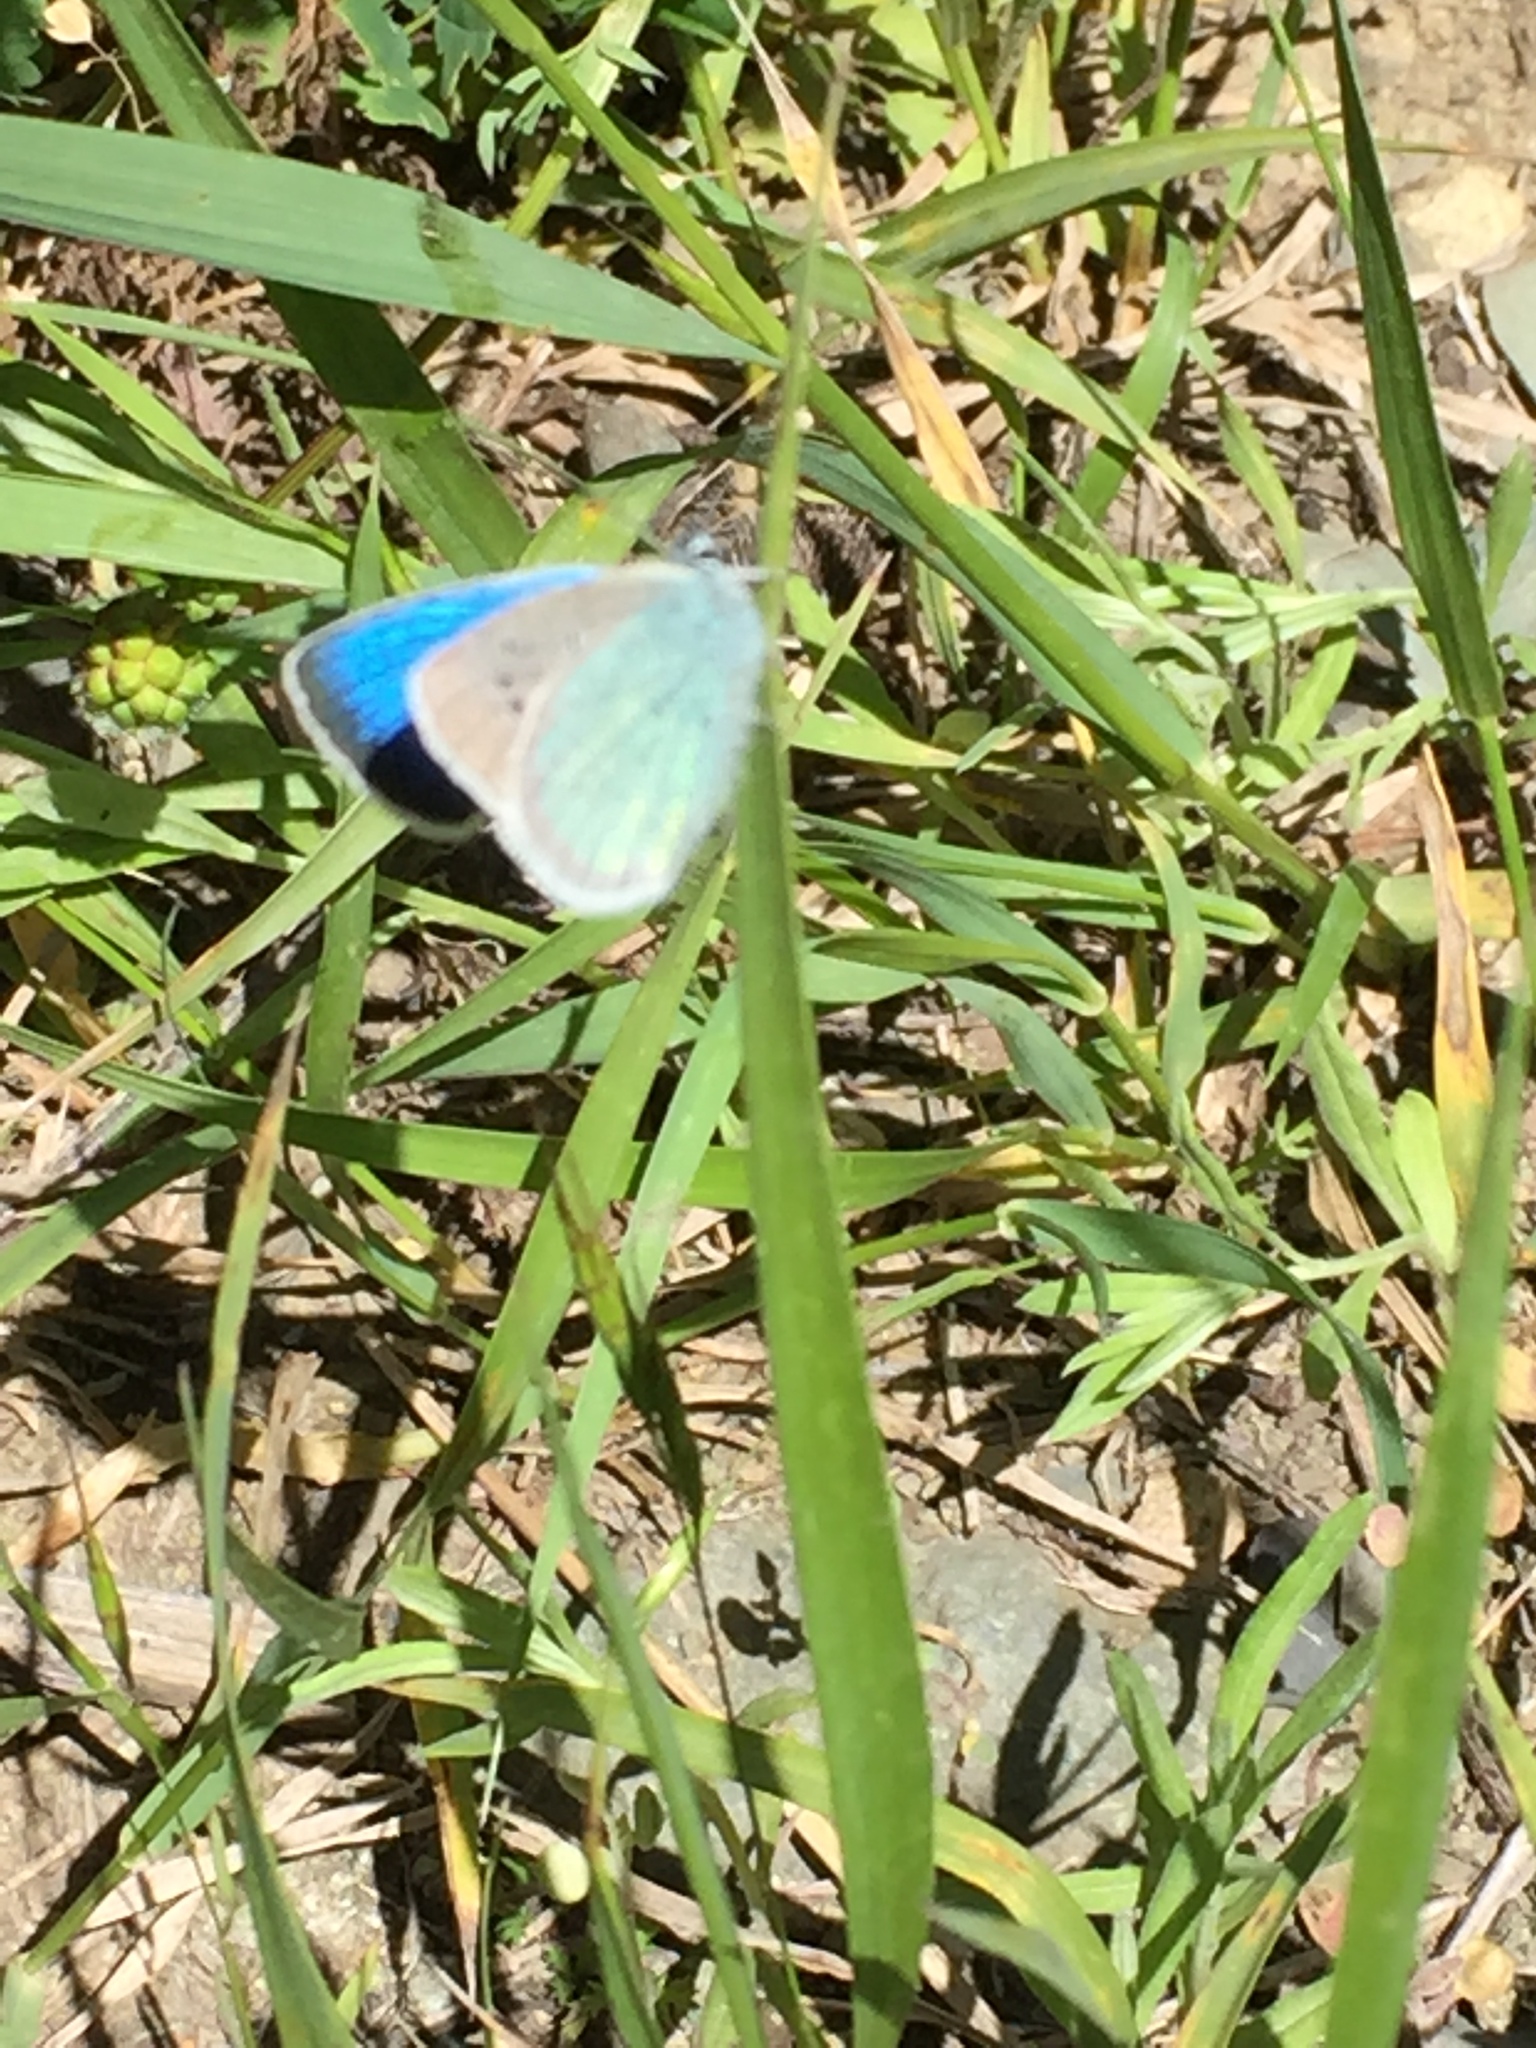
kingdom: Animalia
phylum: Arthropoda
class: Insecta
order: Lepidoptera
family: Lycaenidae
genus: Agrodiaetus
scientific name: Agrodiaetus Neolysandra coelestina
